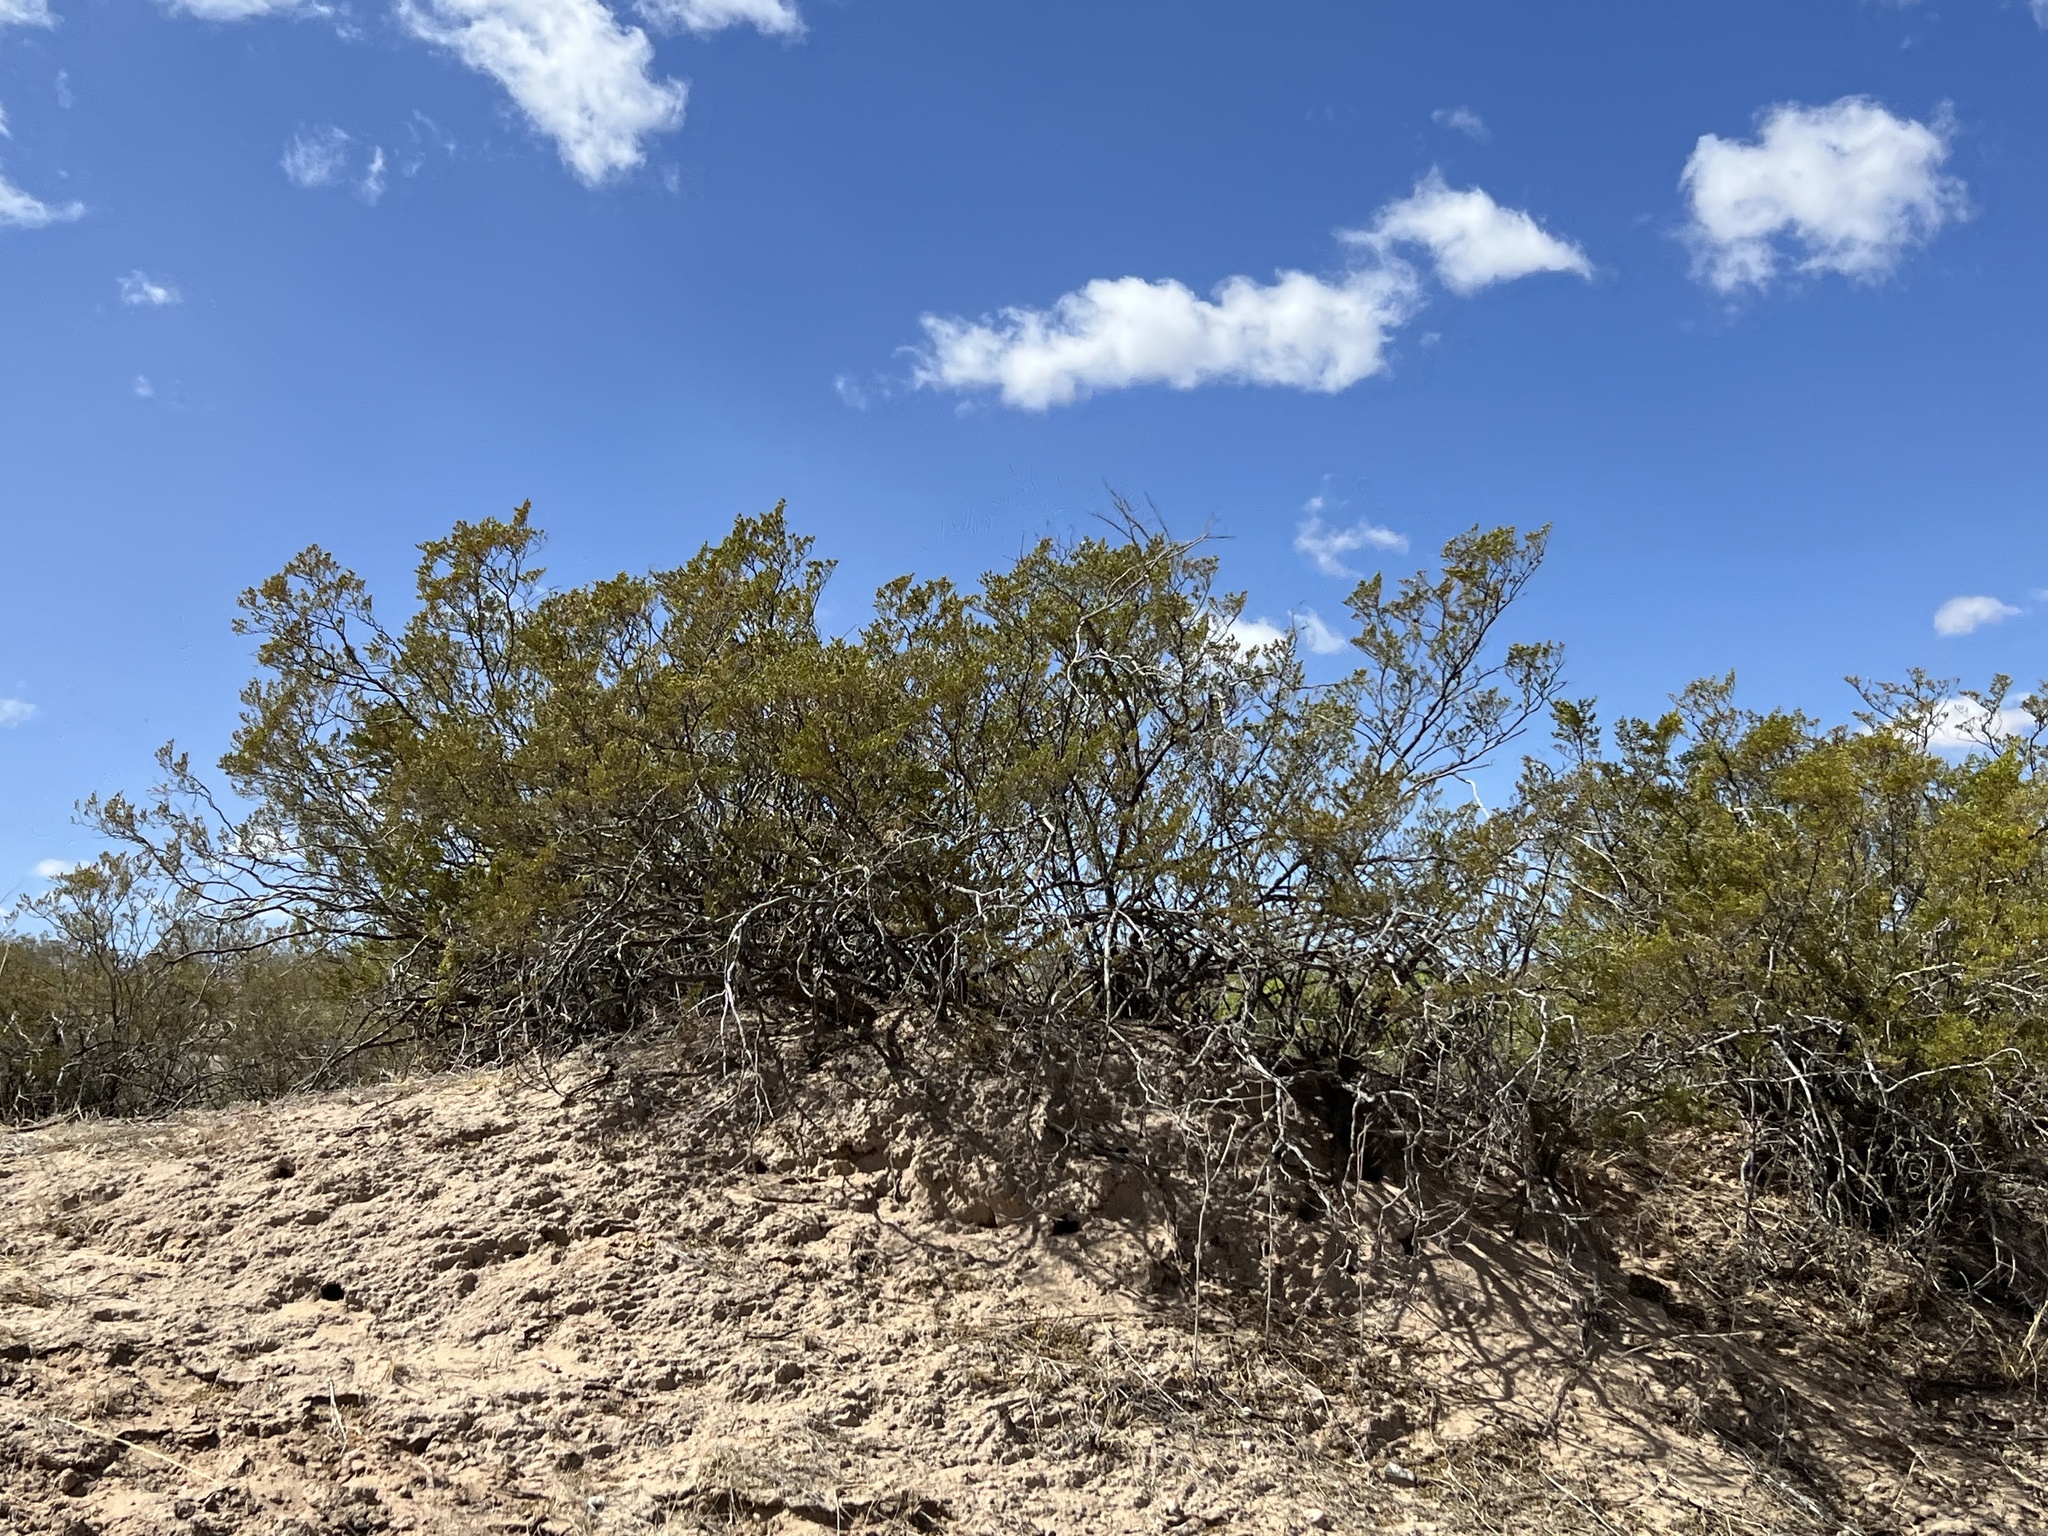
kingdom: Plantae
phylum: Tracheophyta
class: Magnoliopsida
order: Zygophyllales
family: Zygophyllaceae
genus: Larrea
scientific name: Larrea tridentata
